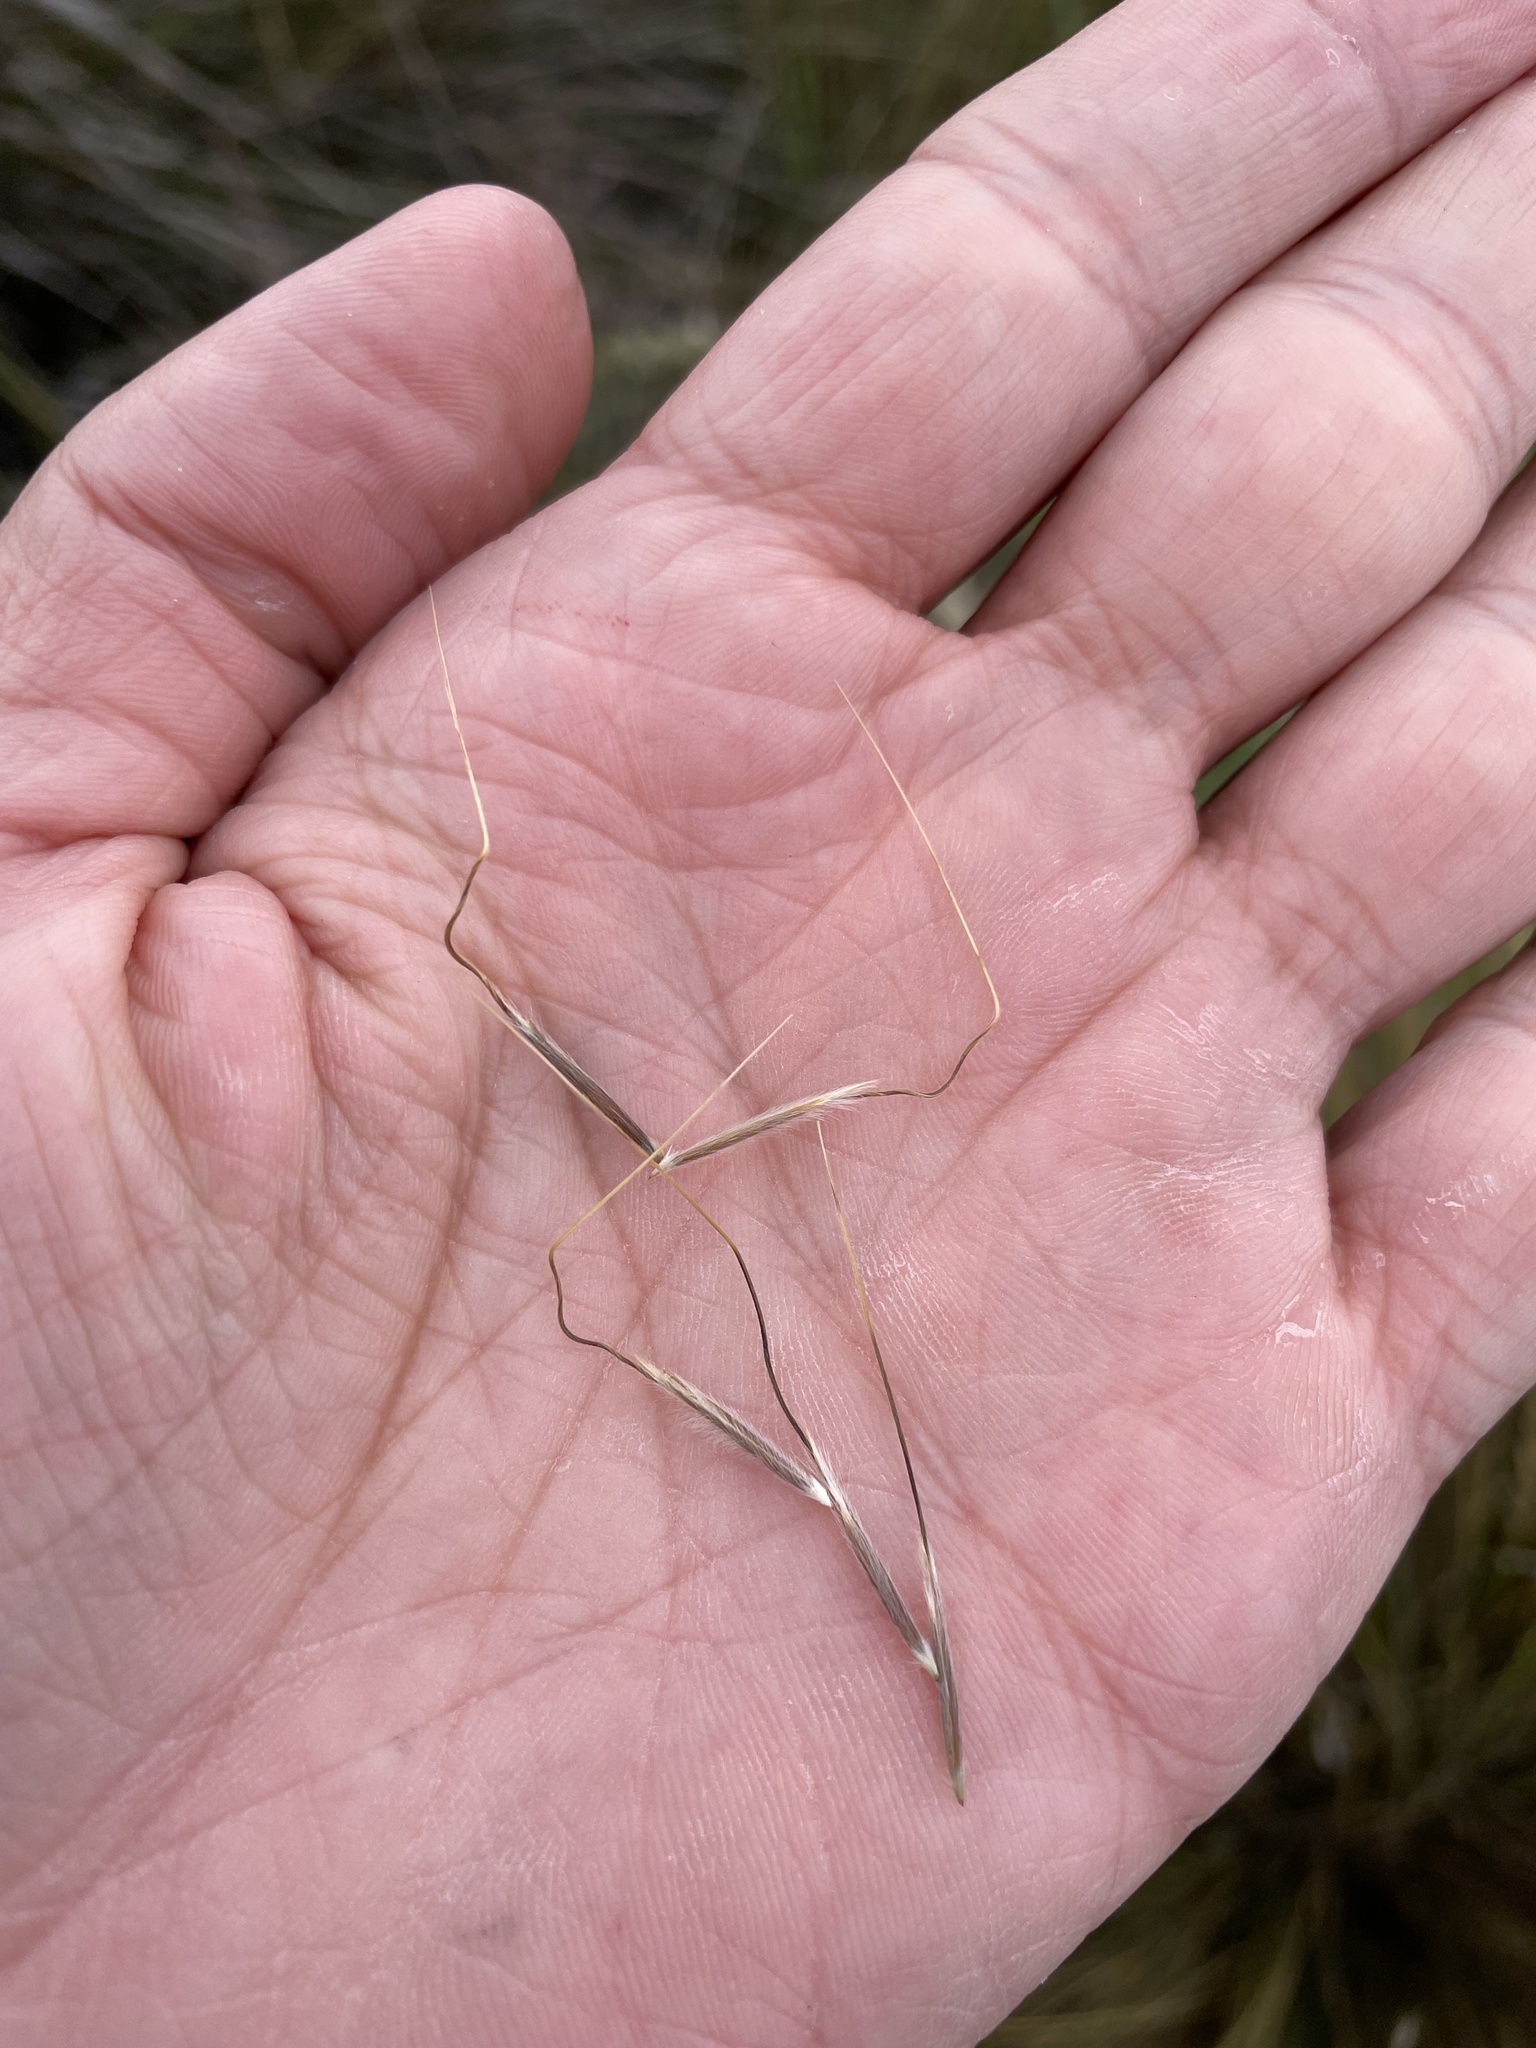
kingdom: Plantae
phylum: Tracheophyta
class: Liliopsida
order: Poales
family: Poaceae
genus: Austrostipa
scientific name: Austrostipa stipoides
